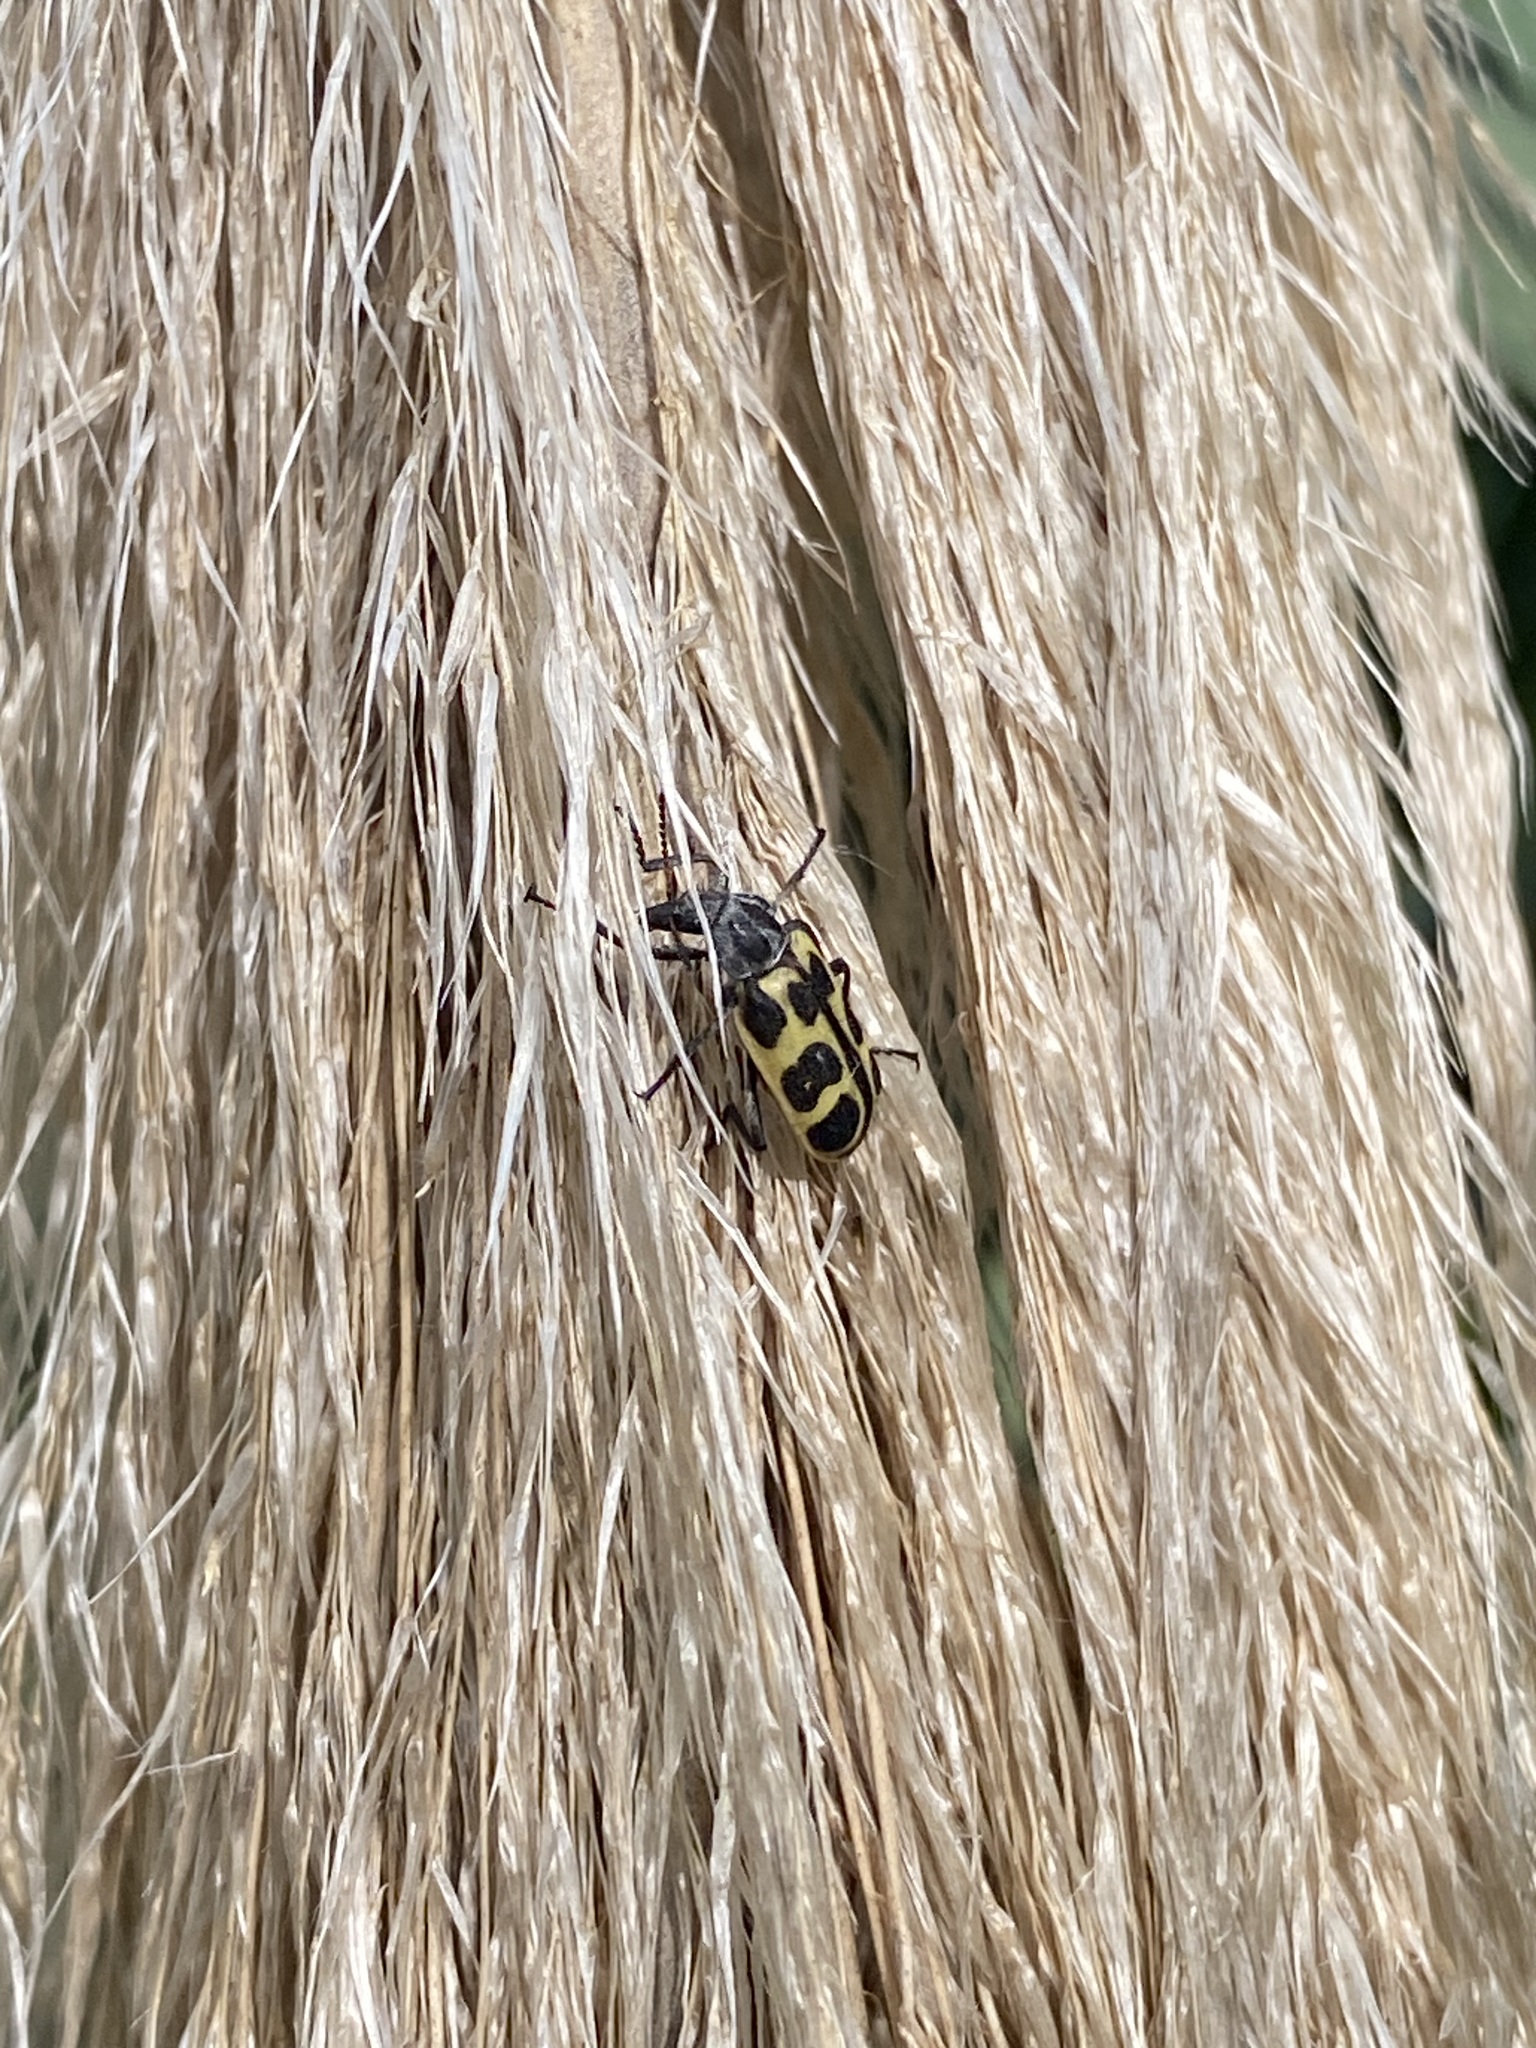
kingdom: Animalia
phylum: Arthropoda
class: Insecta
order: Coleoptera
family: Melyridae
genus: Astylus
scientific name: Astylus atromaculatus
